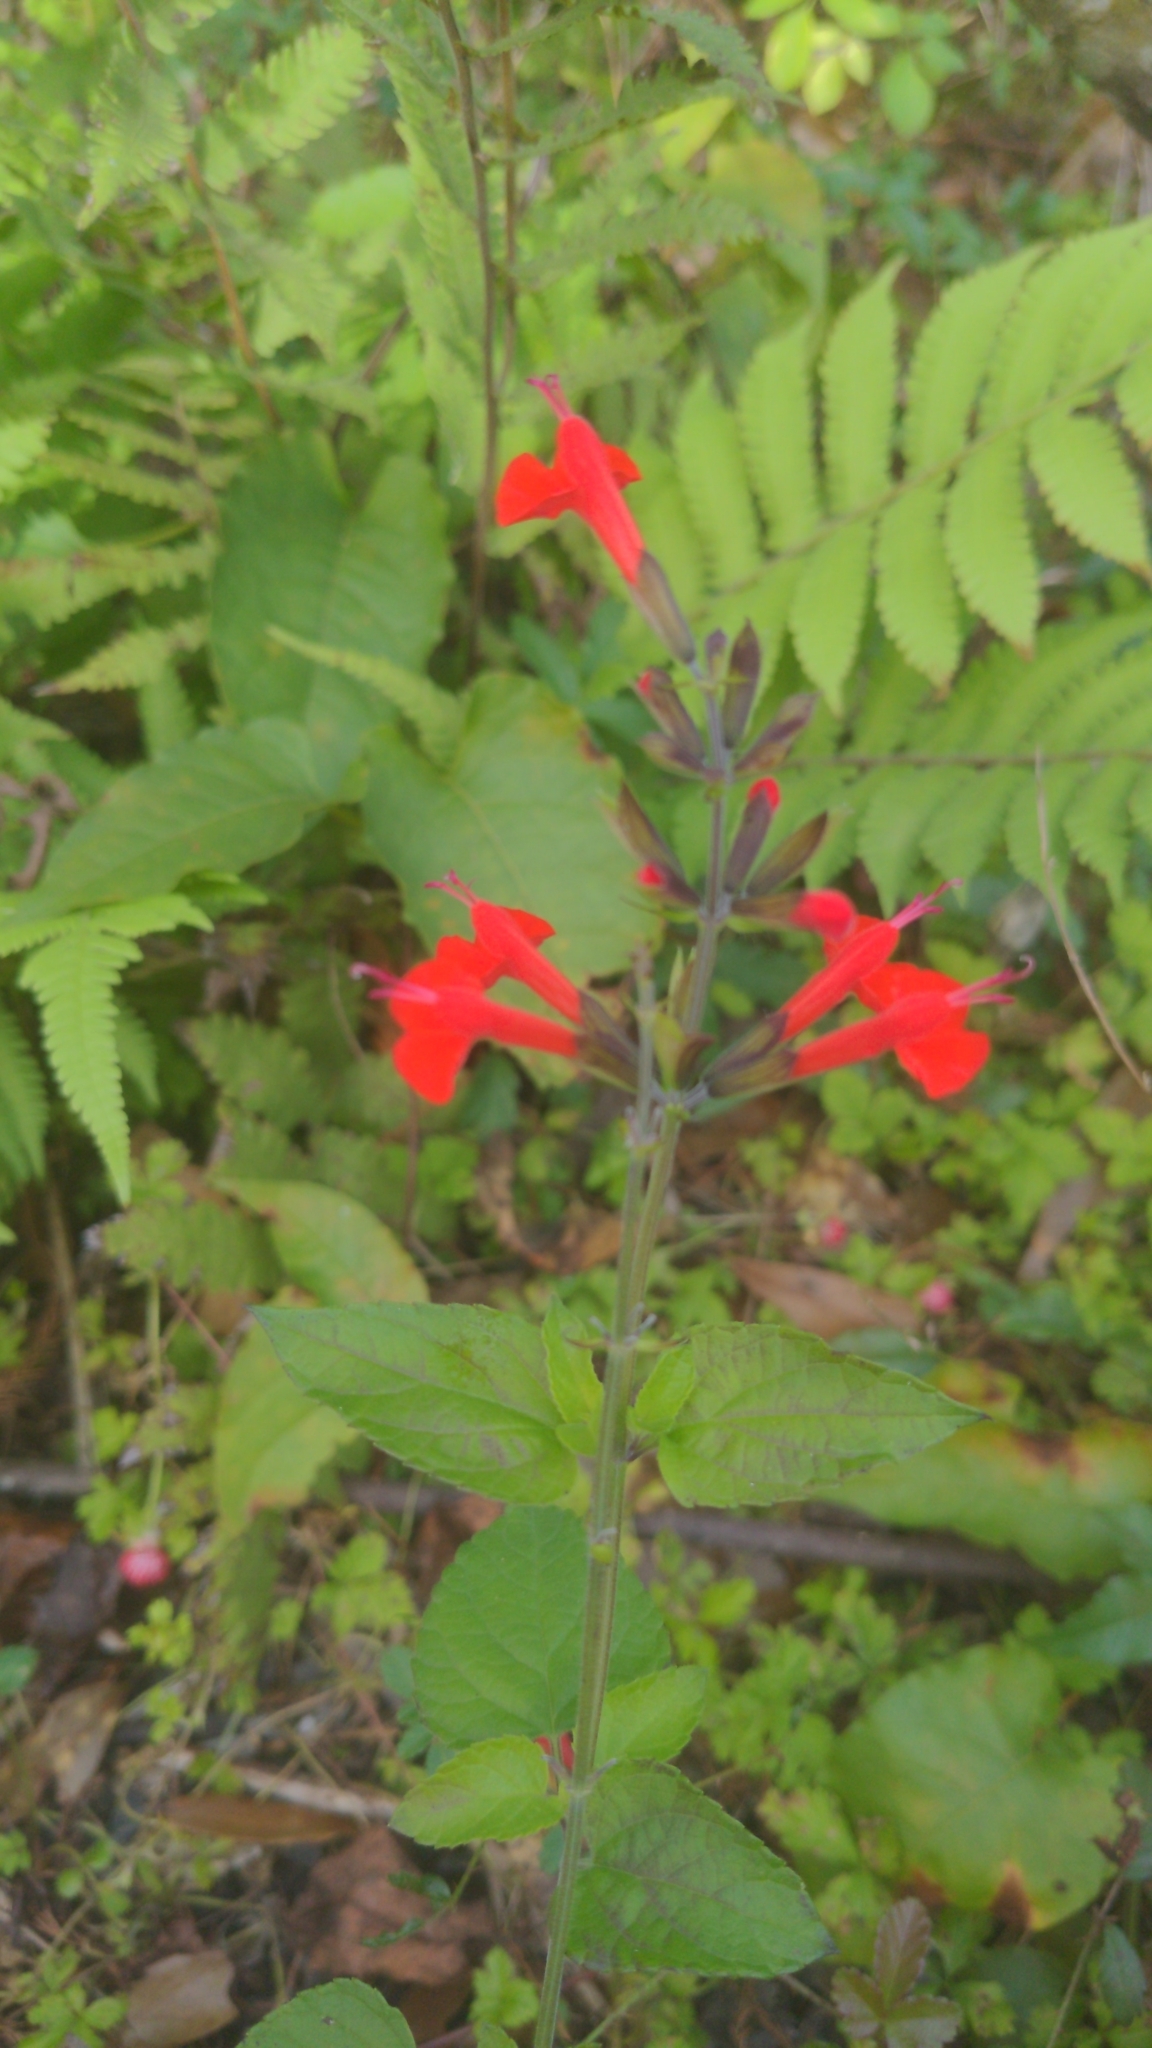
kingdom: Plantae
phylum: Tracheophyta
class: Magnoliopsida
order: Lamiales
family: Lamiaceae
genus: Salvia
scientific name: Salvia coccinea
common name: Blood sage
